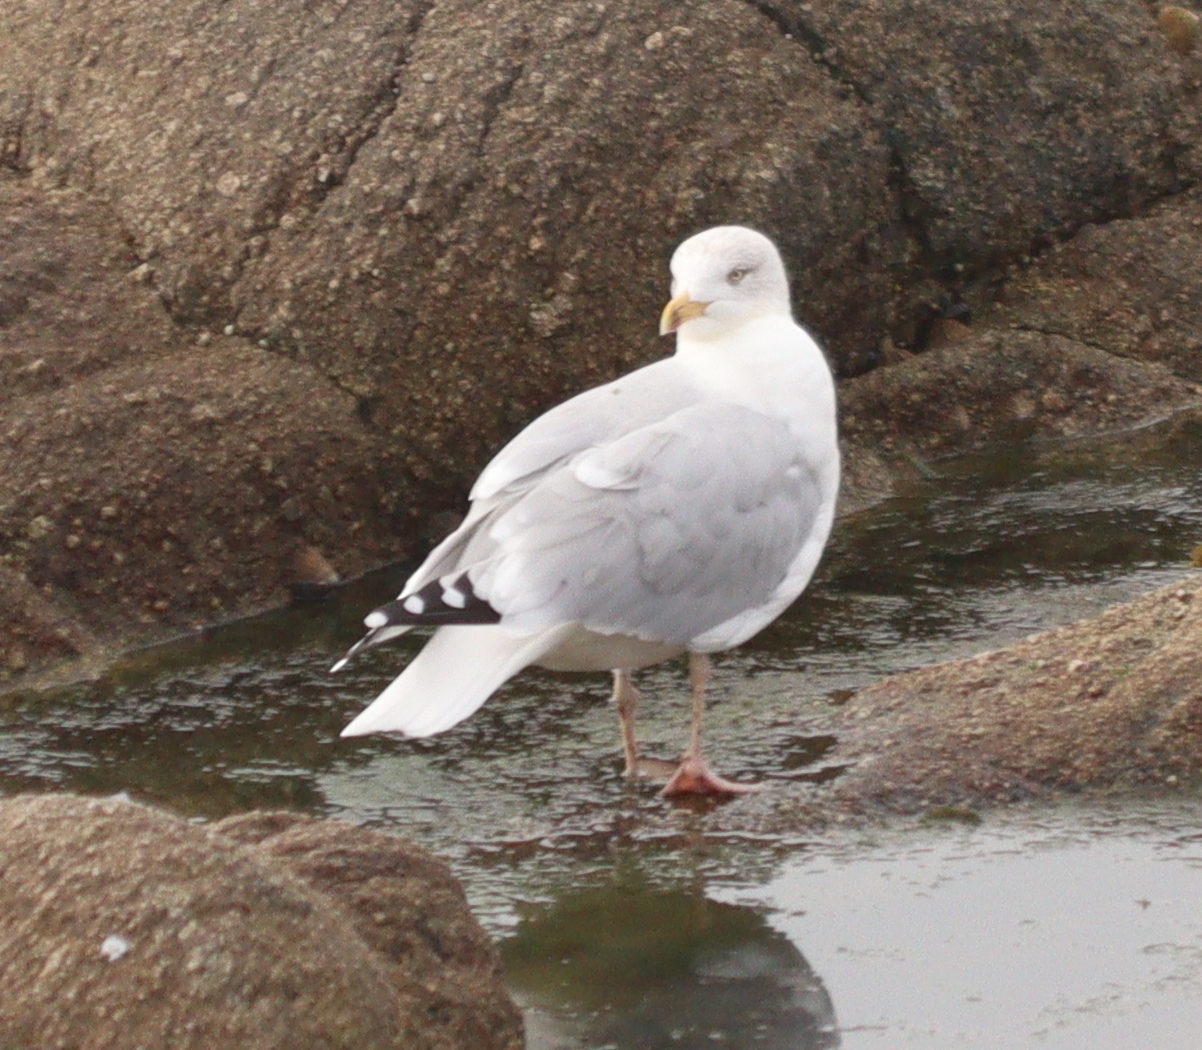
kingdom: Animalia
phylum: Chordata
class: Aves
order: Charadriiformes
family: Laridae
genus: Larus
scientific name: Larus argentatus
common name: Herring gull
